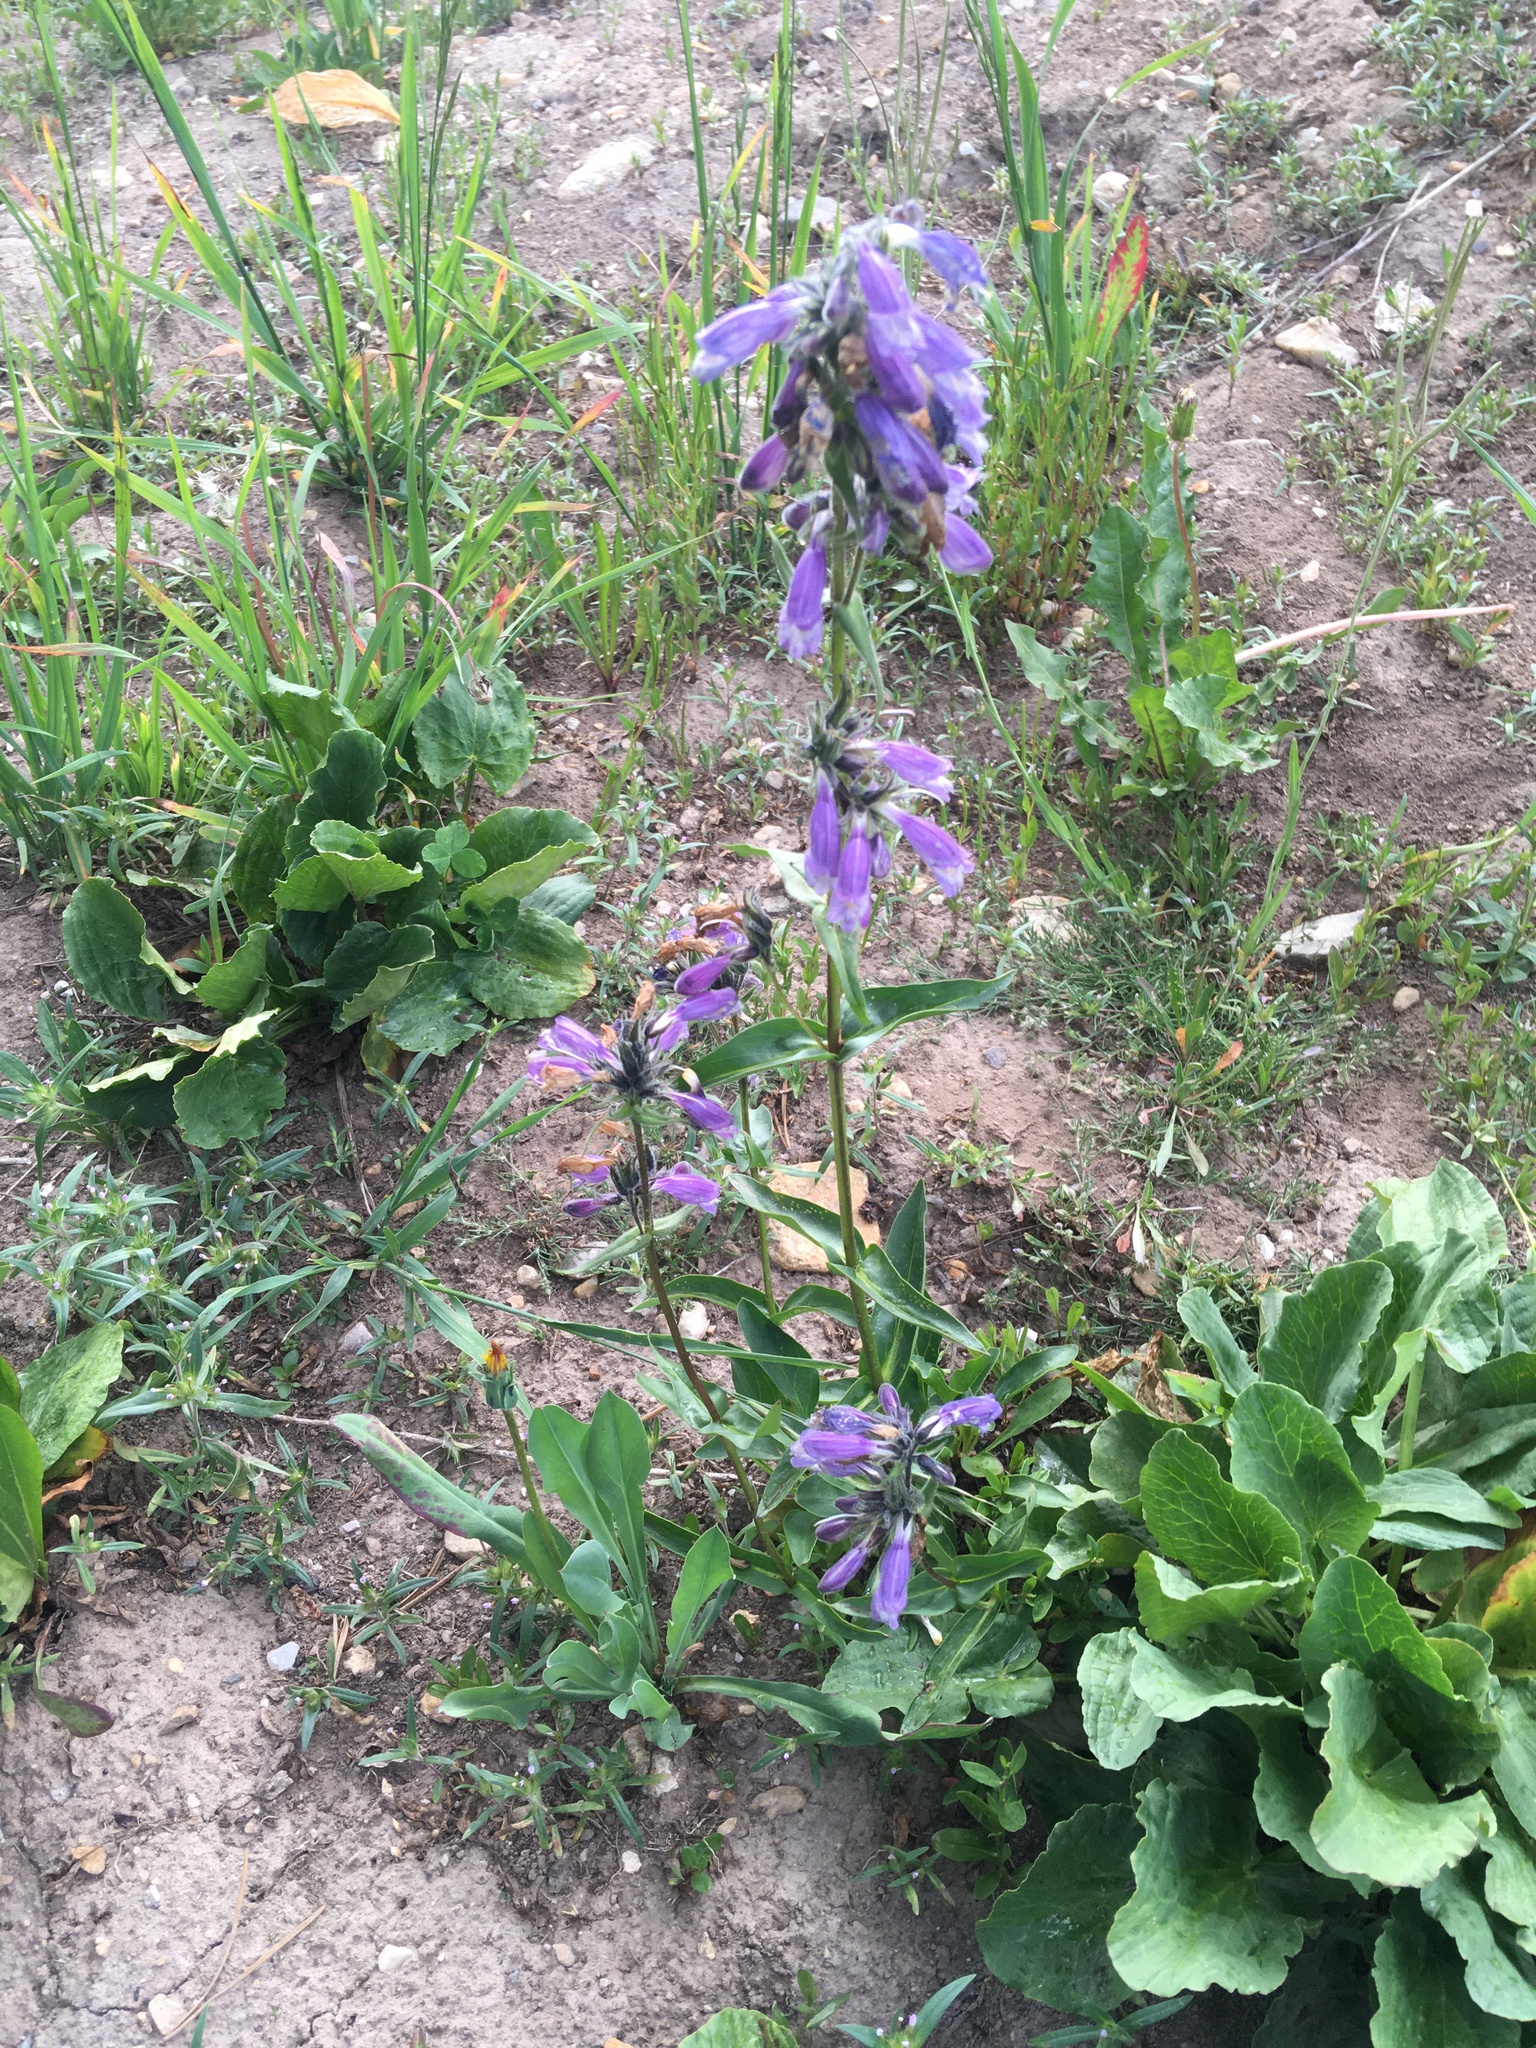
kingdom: Plantae
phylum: Tracheophyta
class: Magnoliopsida
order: Lamiales
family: Plantaginaceae
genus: Penstemon
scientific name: Penstemon whippleanus
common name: Whipple's penstemon
